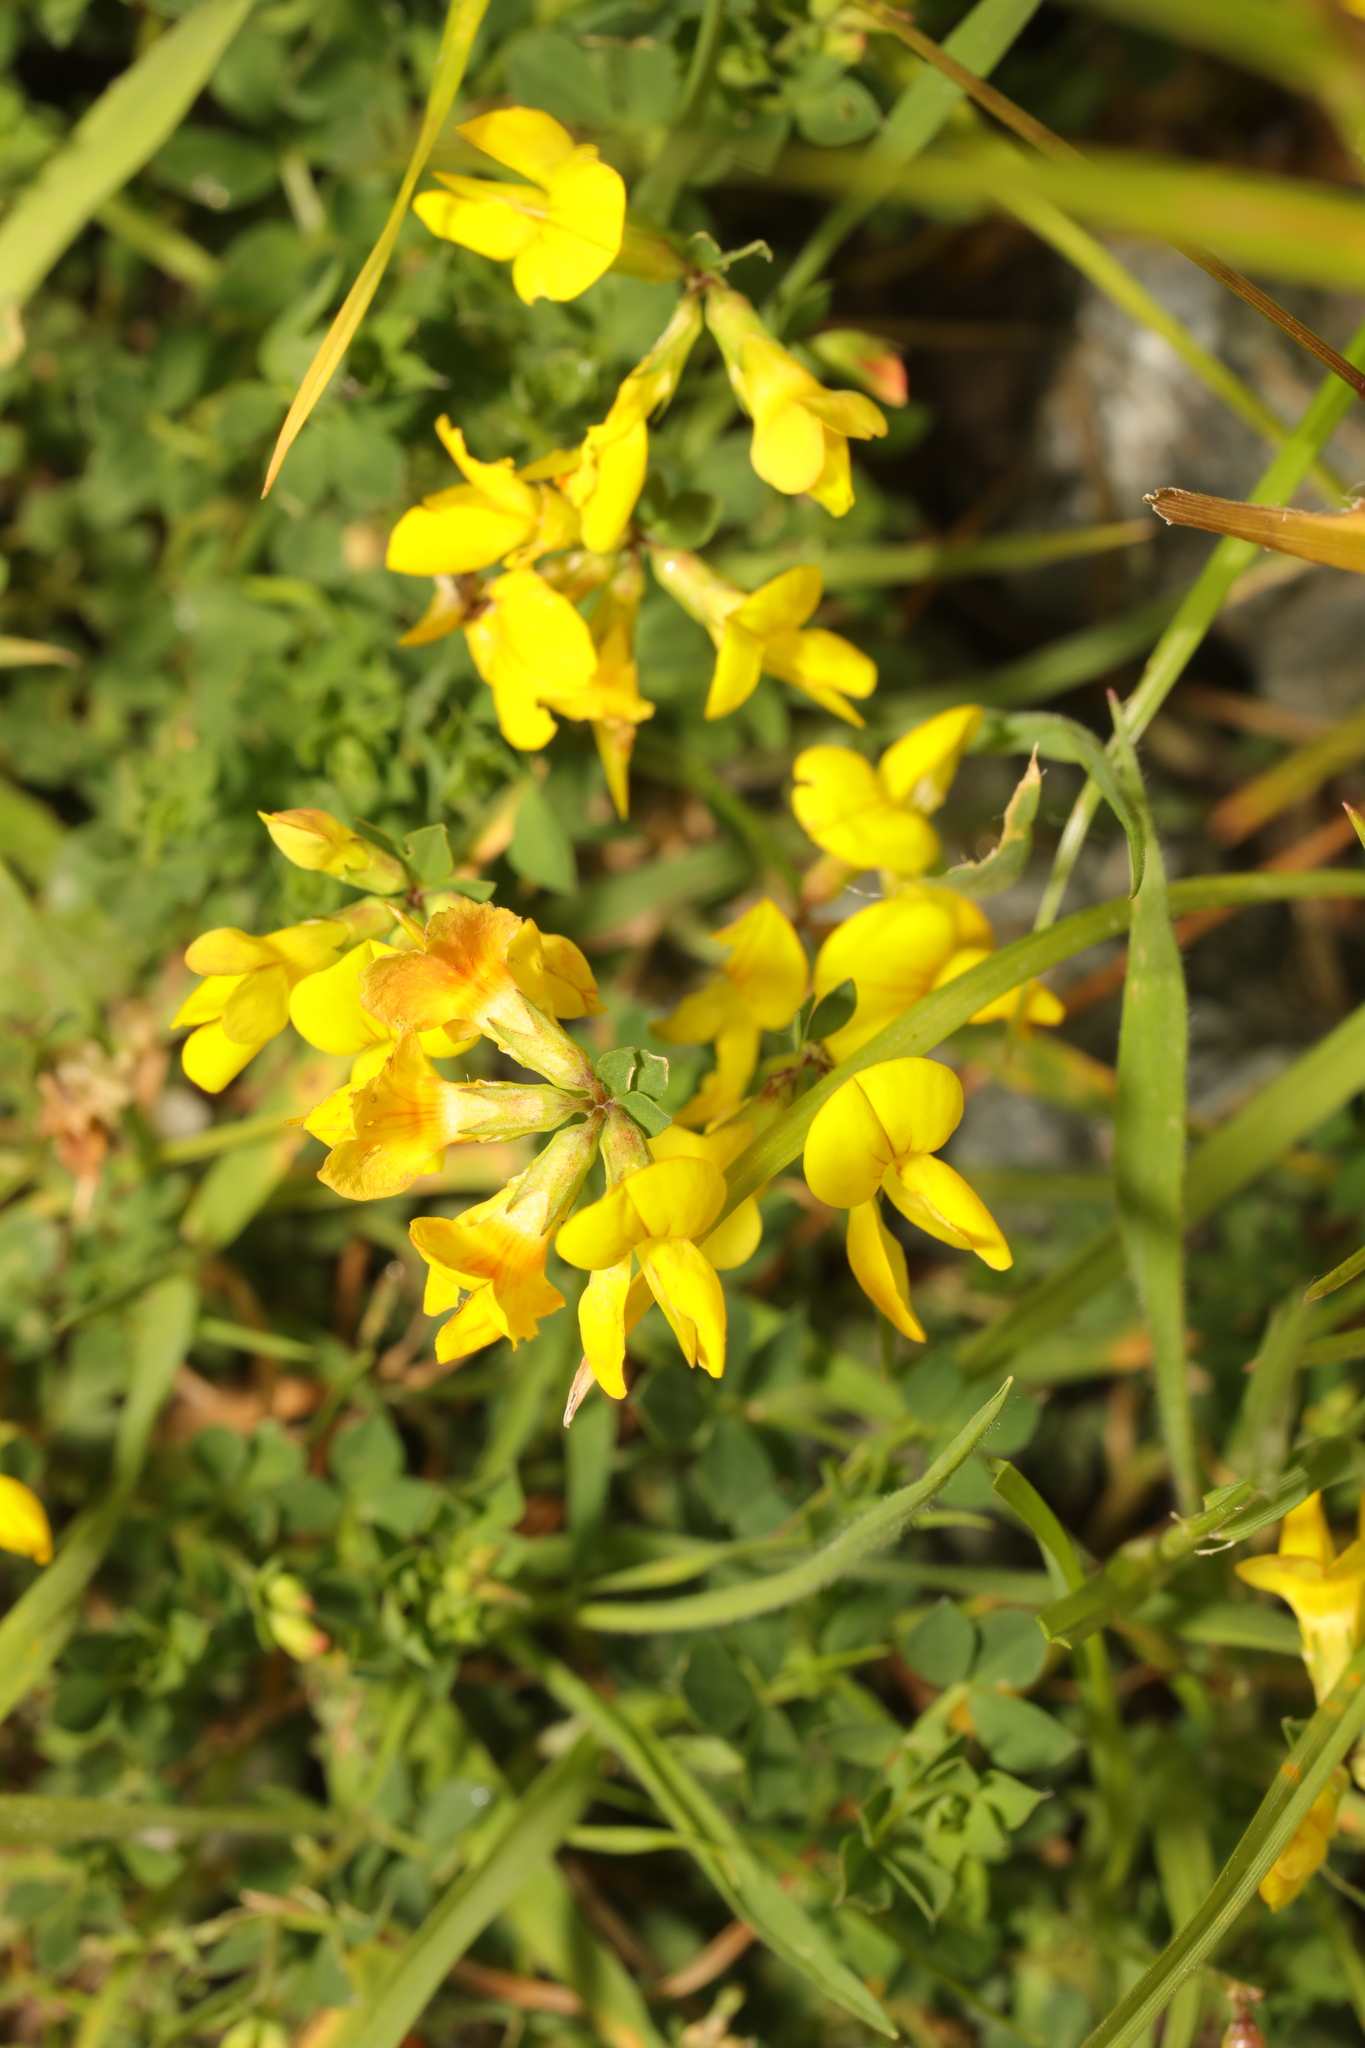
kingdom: Plantae
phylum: Tracheophyta
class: Magnoliopsida
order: Fabales
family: Fabaceae
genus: Lotus
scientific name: Lotus corniculatus
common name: Common bird's-foot-trefoil
